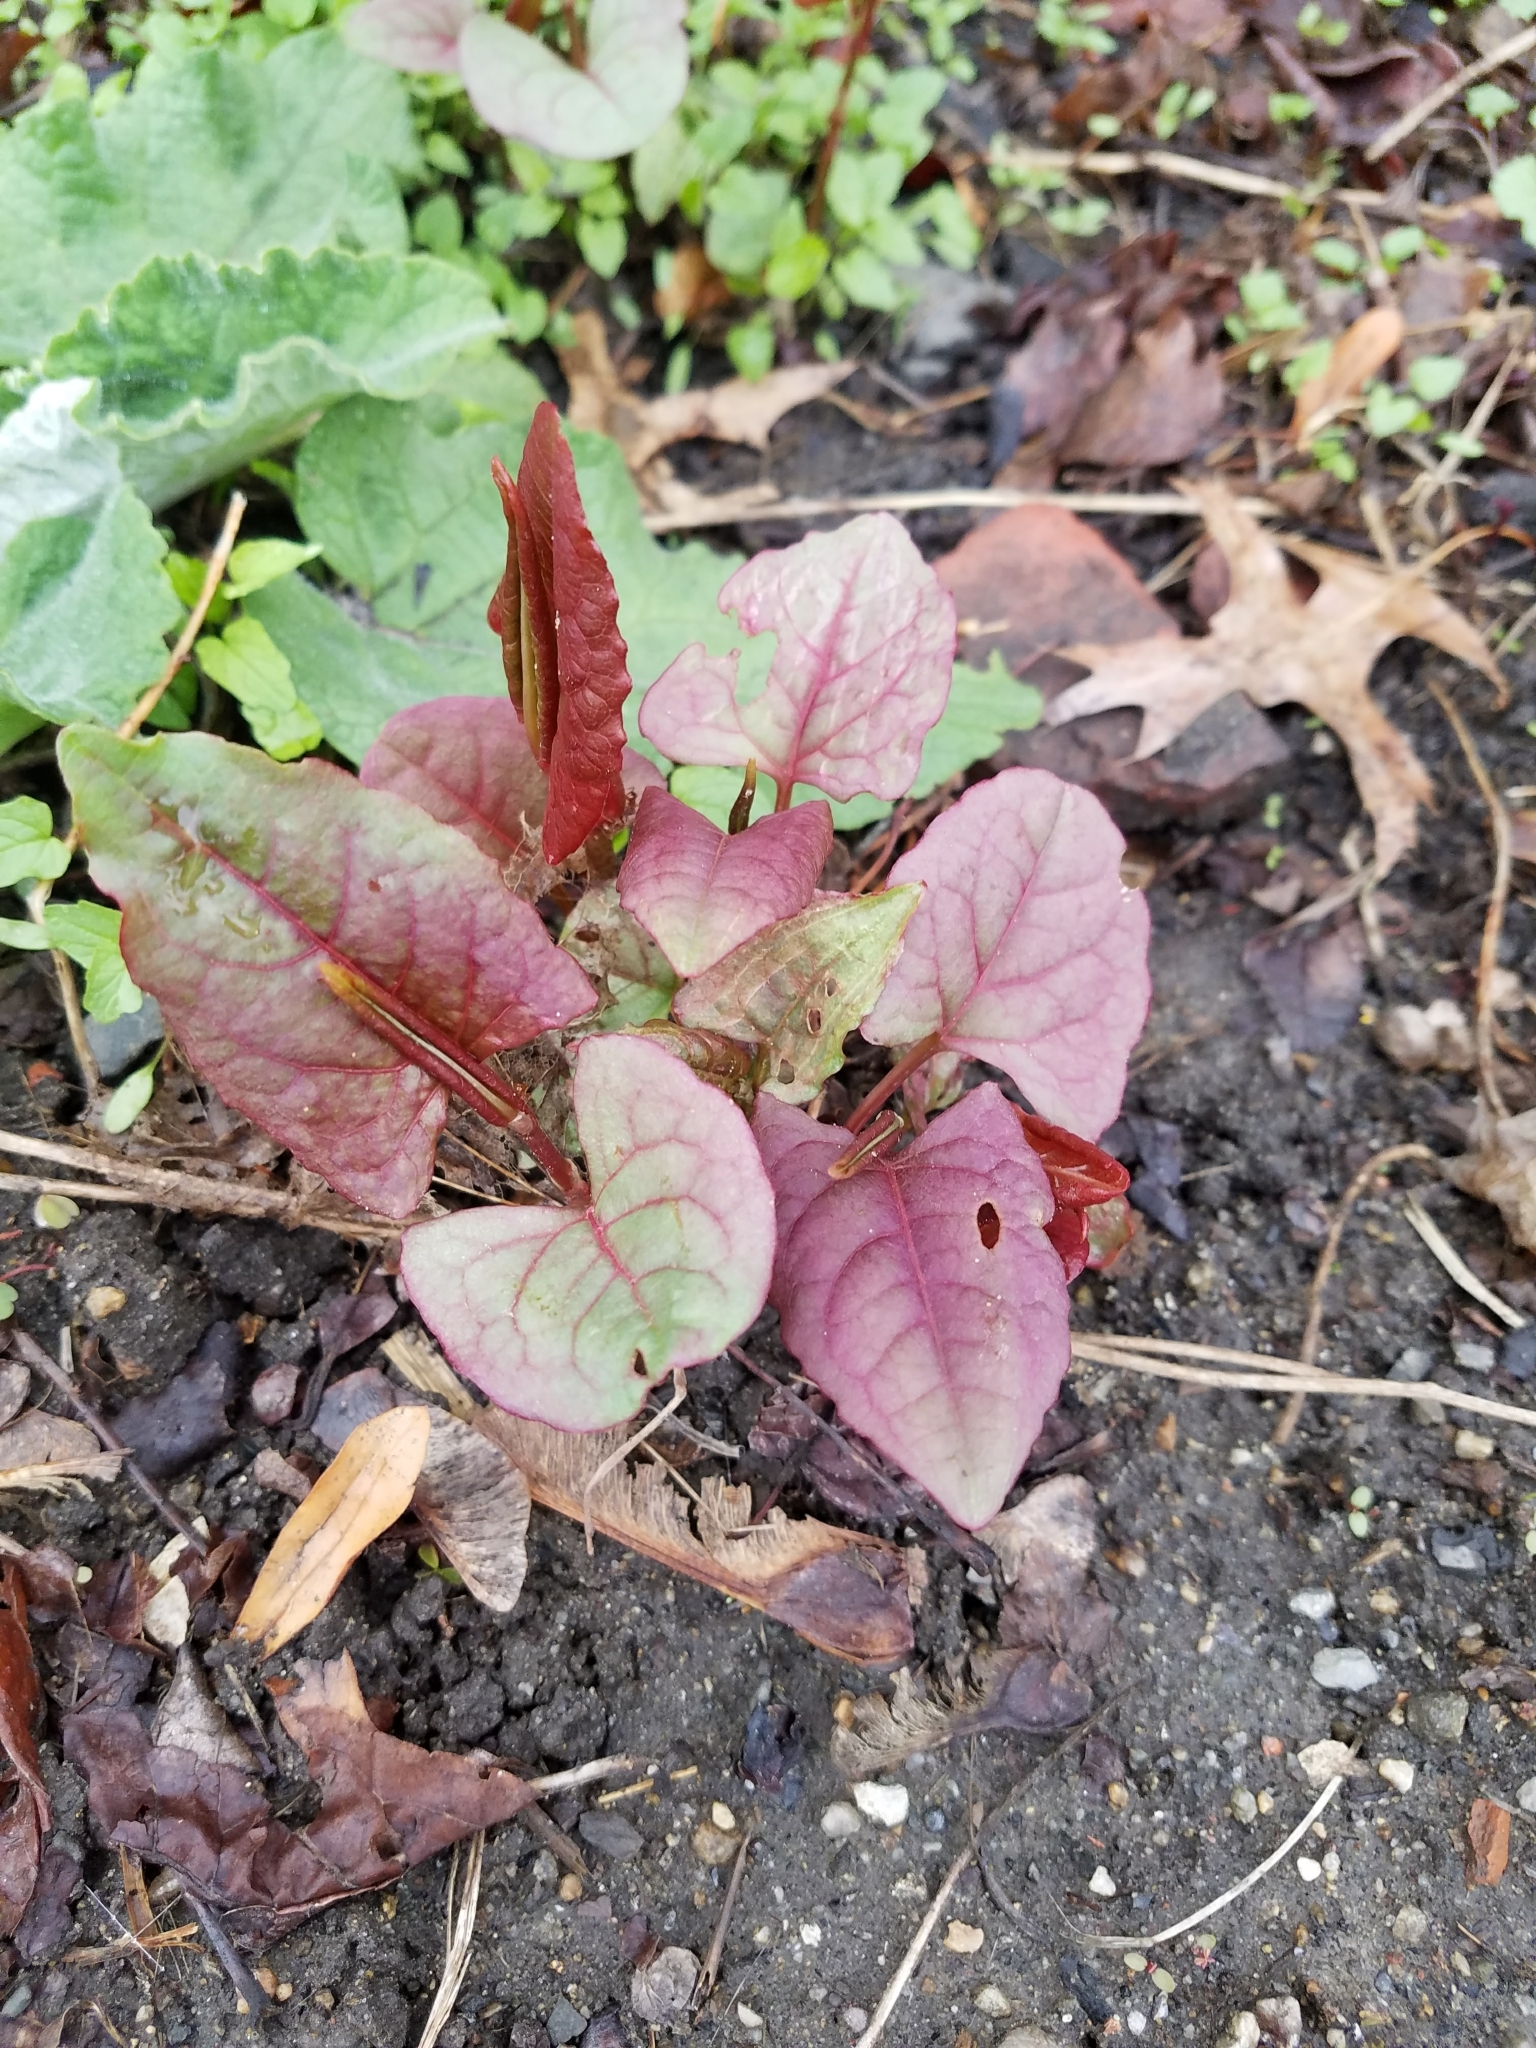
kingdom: Plantae
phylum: Tracheophyta
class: Magnoliopsida
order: Caryophyllales
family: Polygonaceae
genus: Reynoutria
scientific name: Reynoutria japonica
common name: Japanese knotweed
